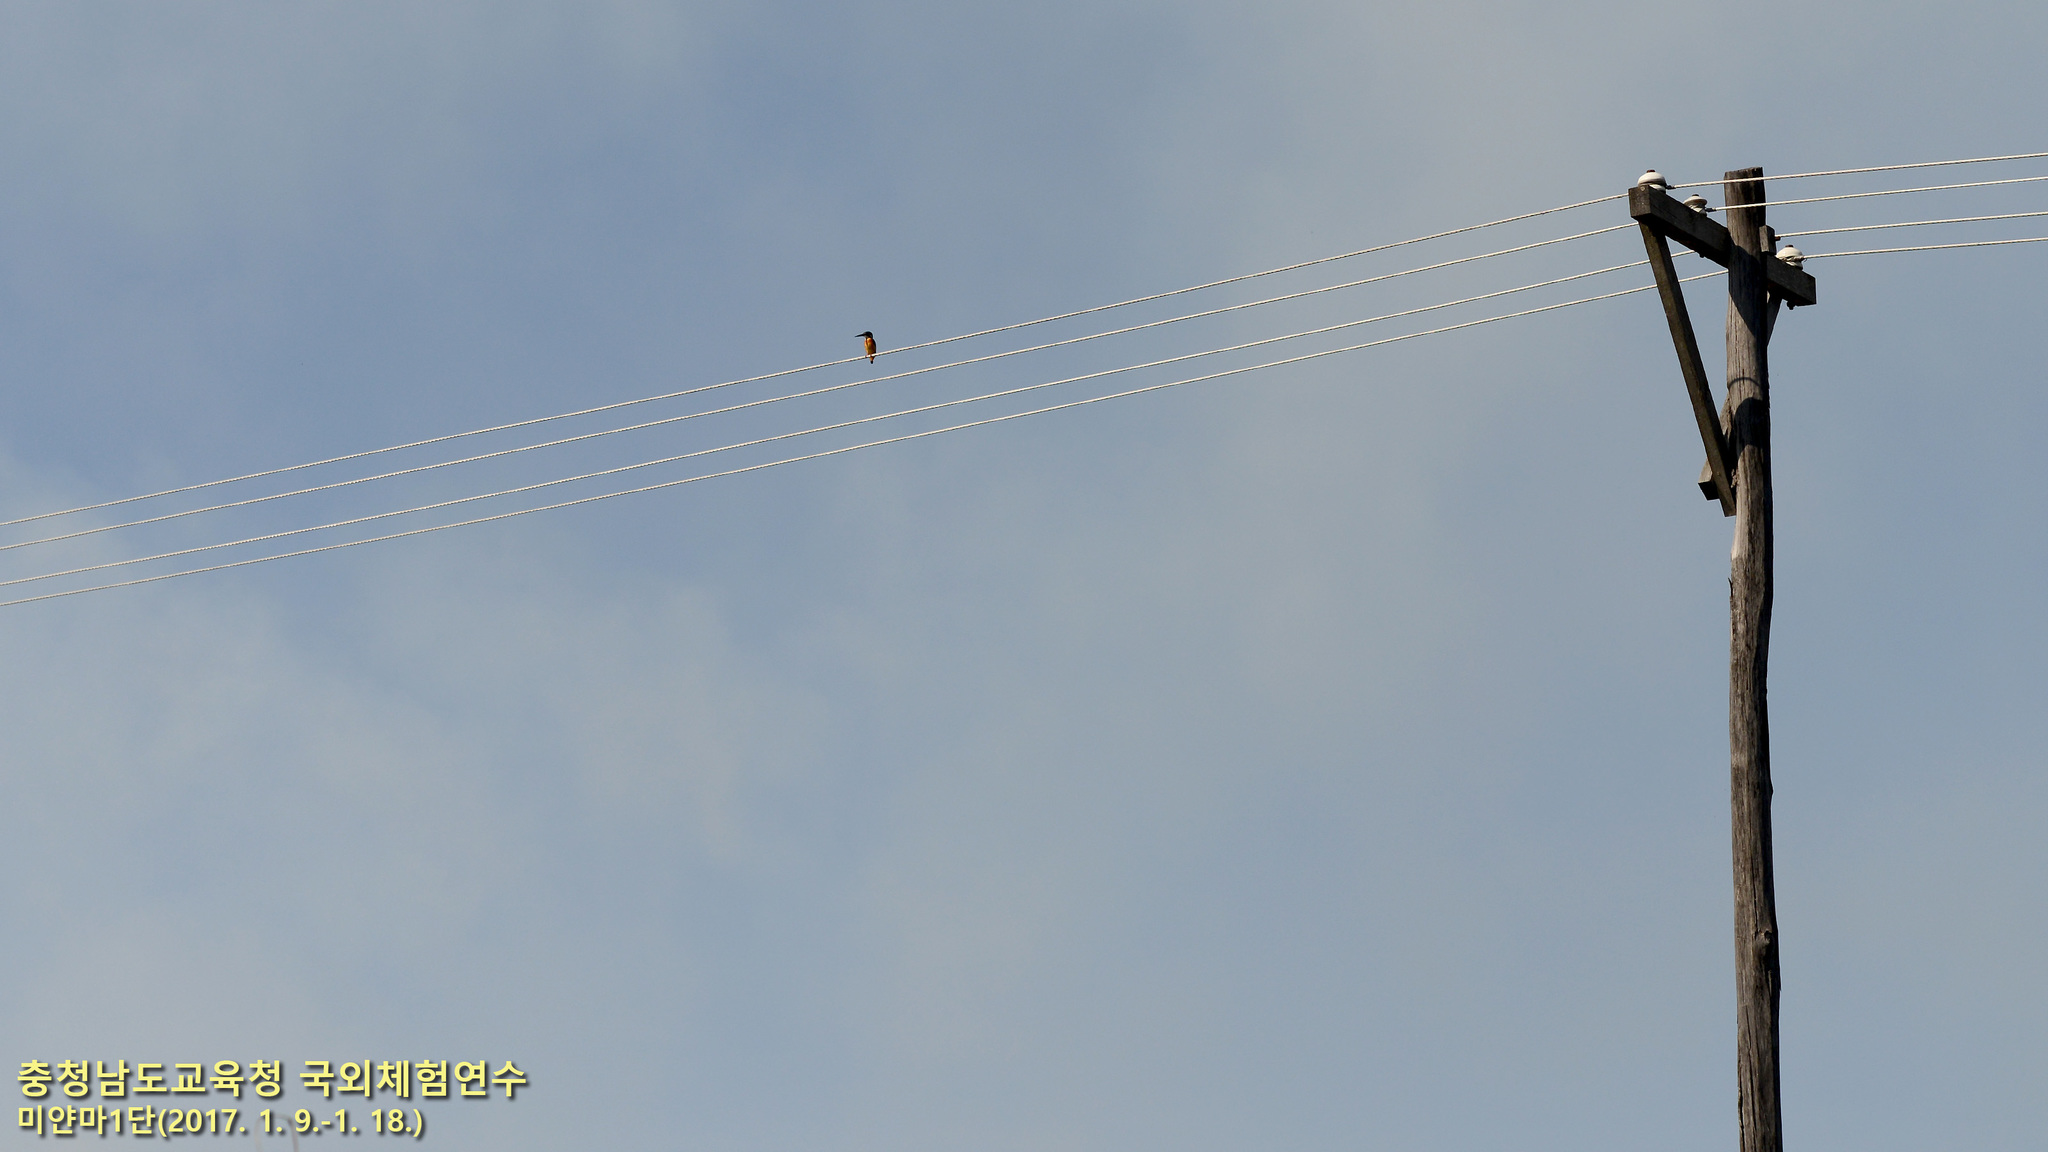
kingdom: Animalia
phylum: Chordata
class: Aves
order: Coraciiformes
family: Alcedinidae
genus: Alcedo
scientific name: Alcedo atthis
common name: Common kingfisher
